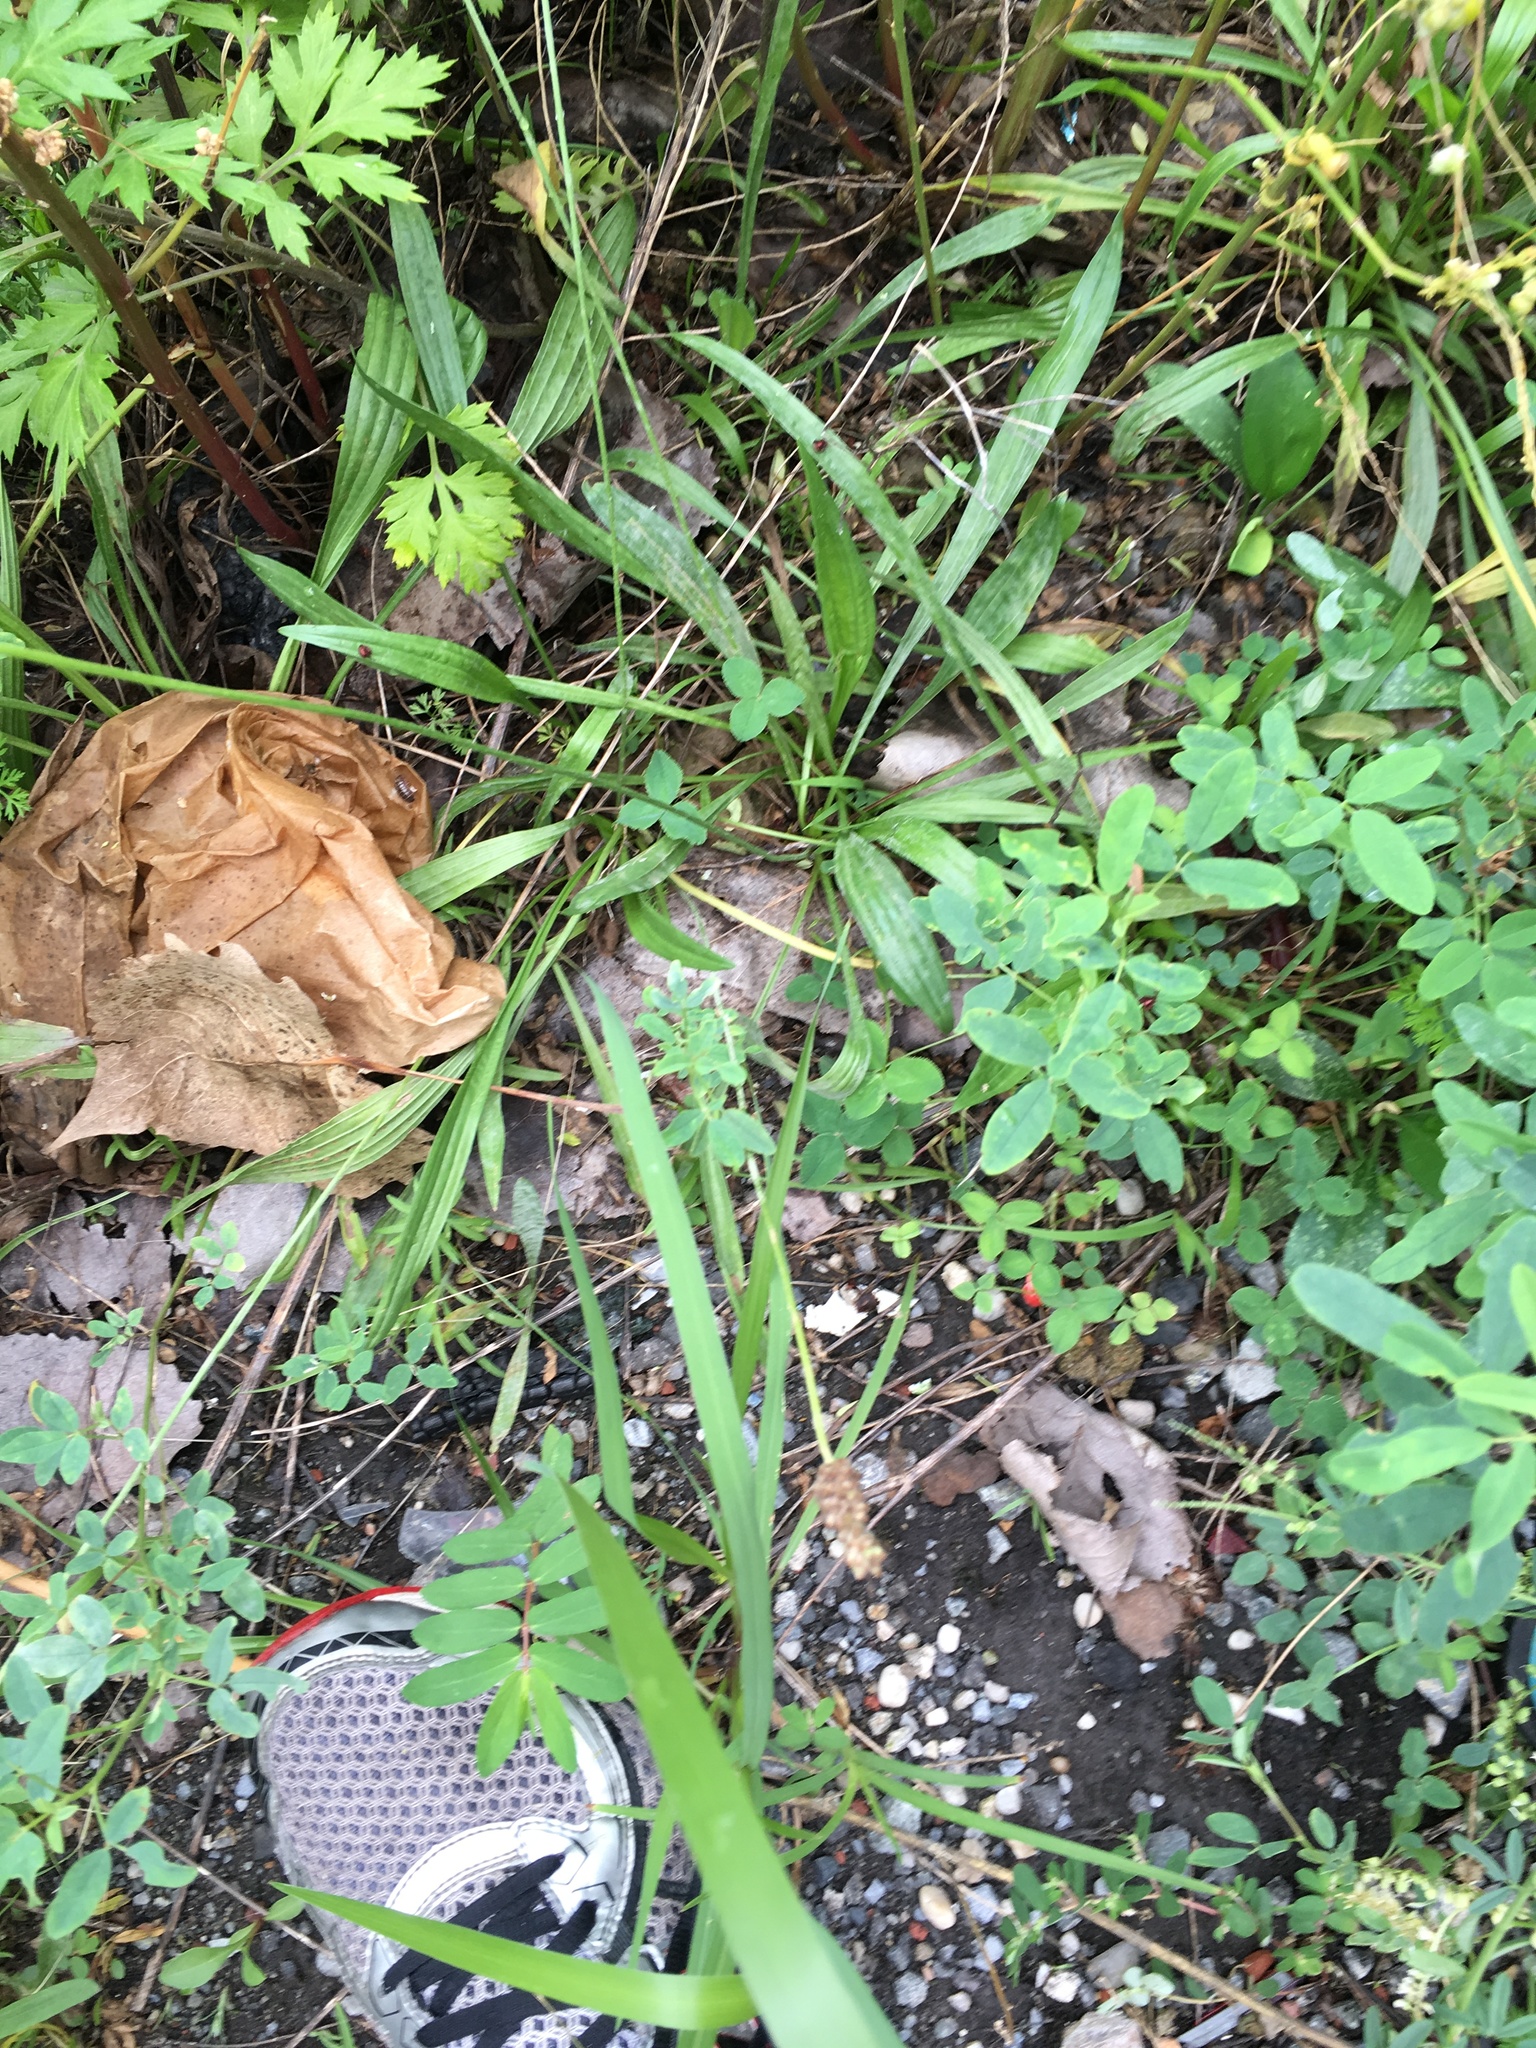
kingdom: Plantae
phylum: Tracheophyta
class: Magnoliopsida
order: Lamiales
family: Plantaginaceae
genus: Plantago
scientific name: Plantago lanceolata
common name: Ribwort plantain
